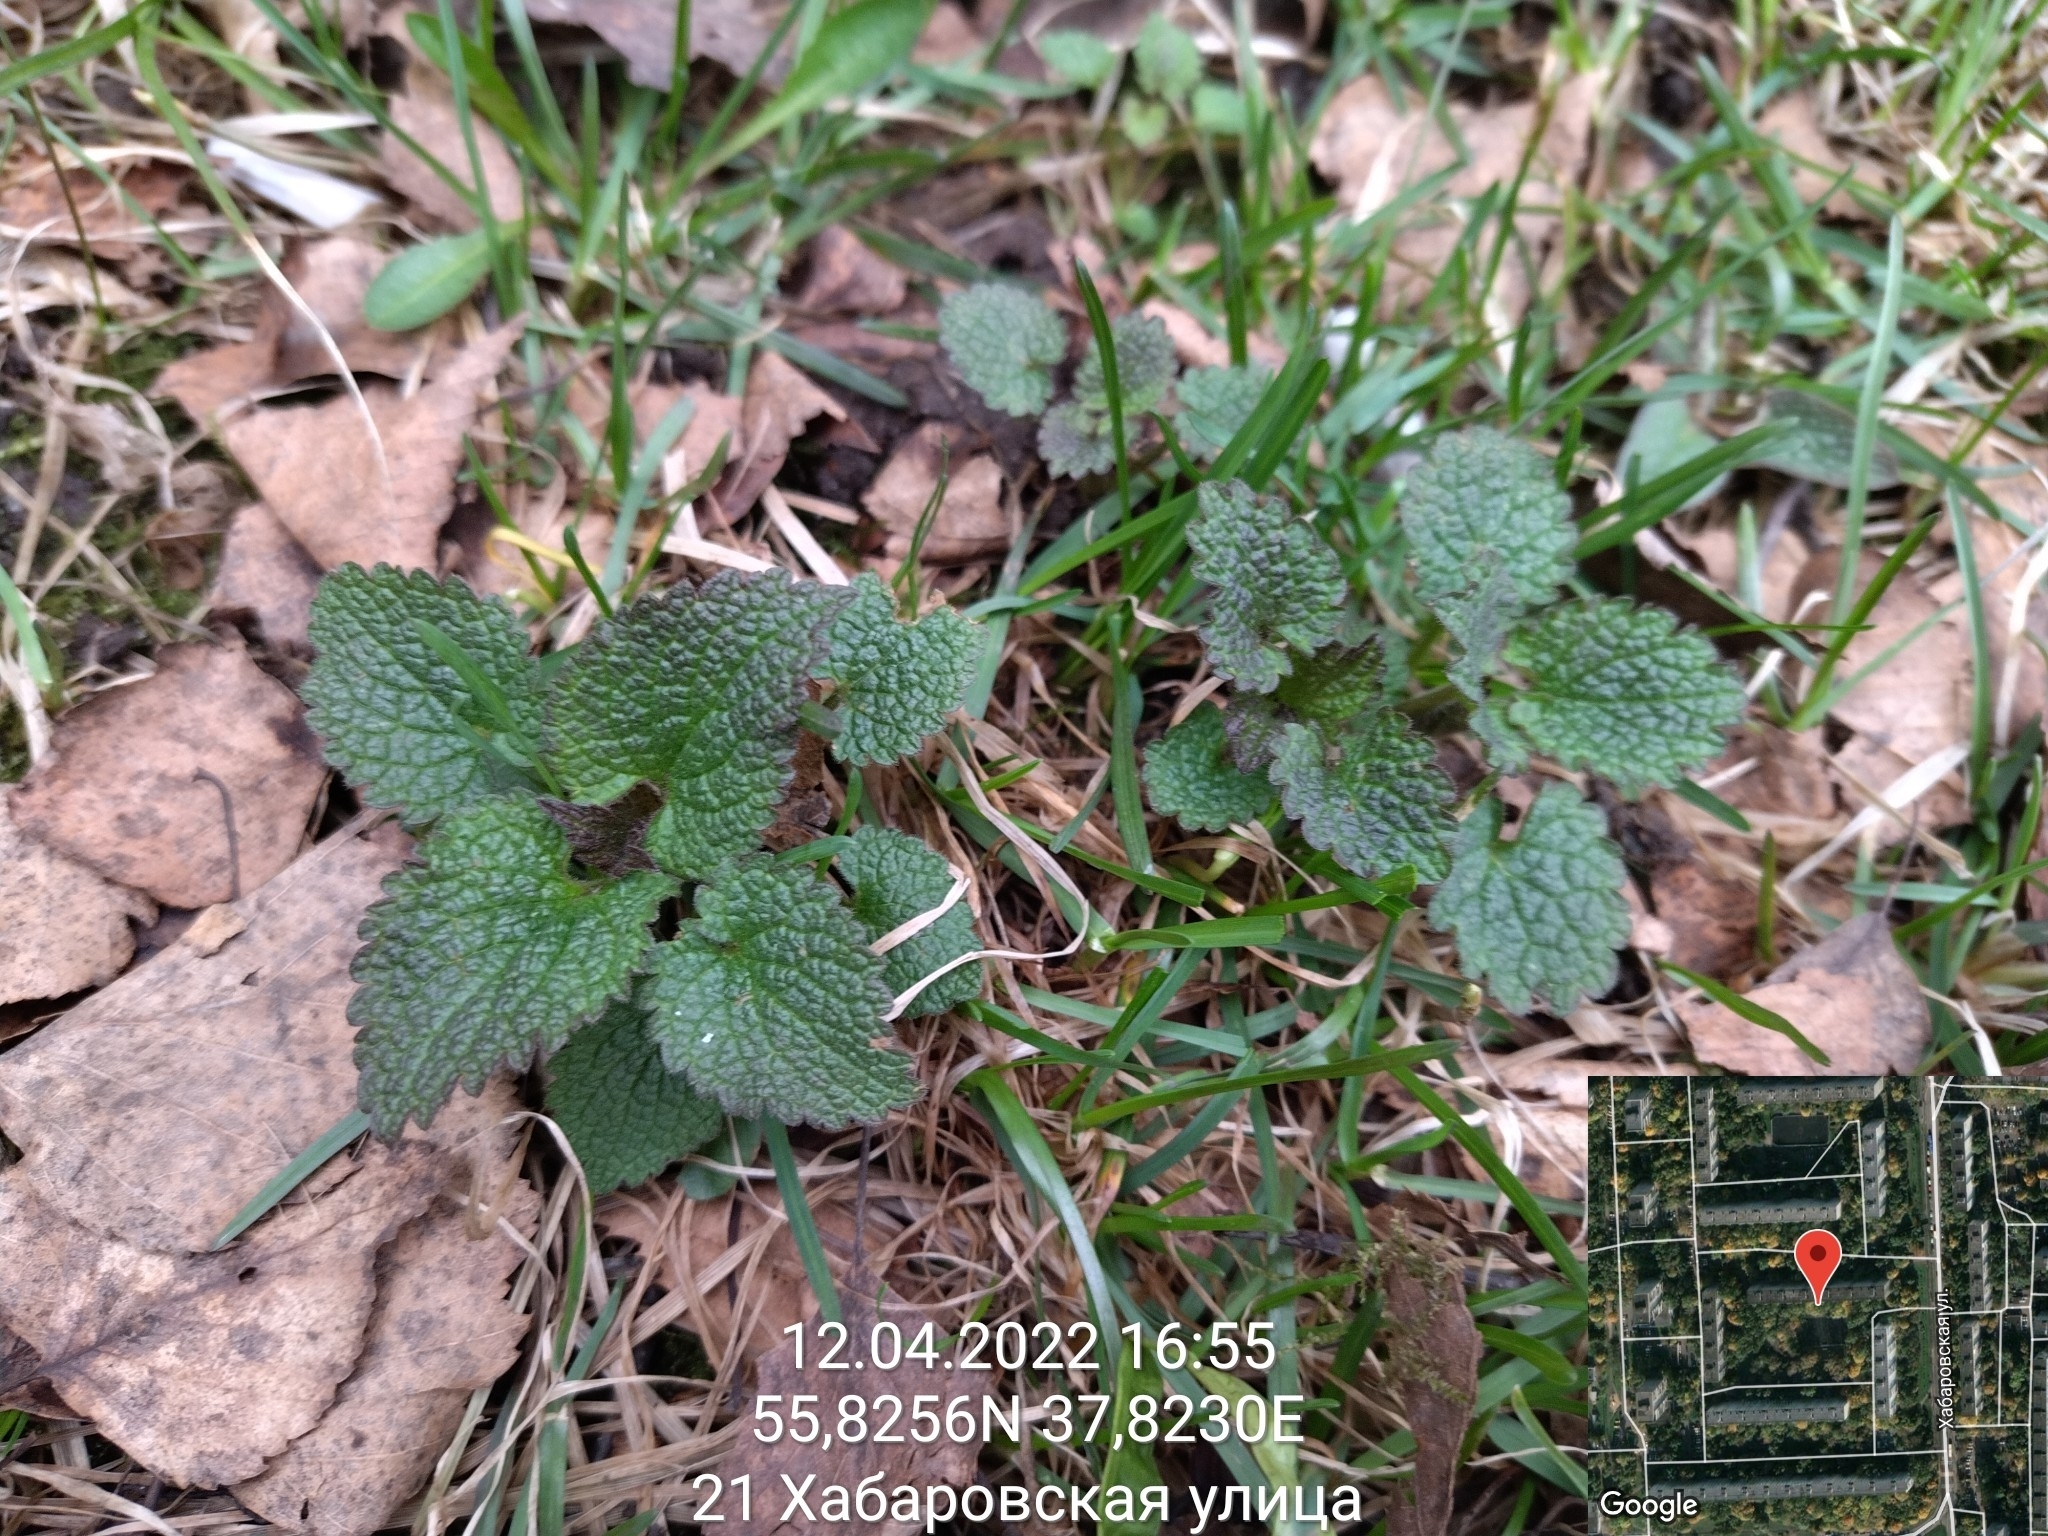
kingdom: Plantae
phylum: Tracheophyta
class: Magnoliopsida
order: Lamiales
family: Lamiaceae
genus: Lamium
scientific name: Lamium album
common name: White dead-nettle
